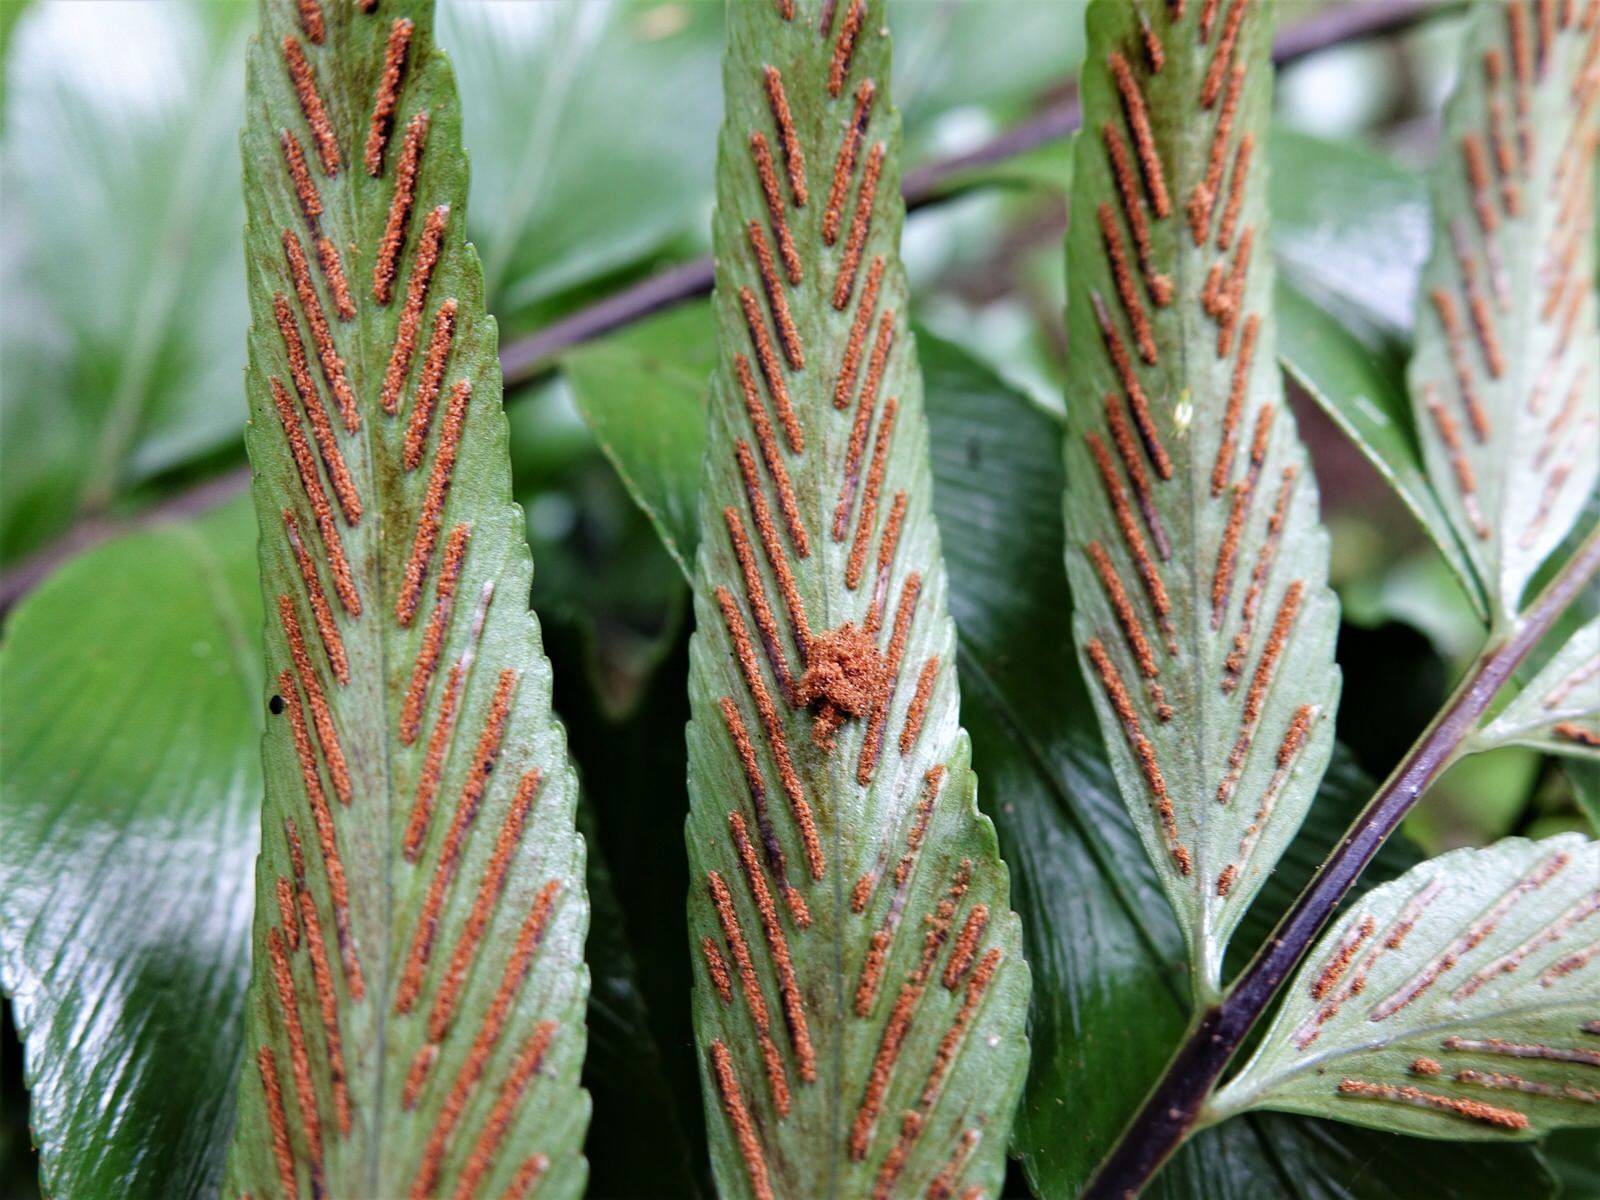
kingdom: Plantae
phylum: Tracheophyta
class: Polypodiopsida
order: Polypodiales
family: Aspleniaceae
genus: Asplenium
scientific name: Asplenium oblongifolium
